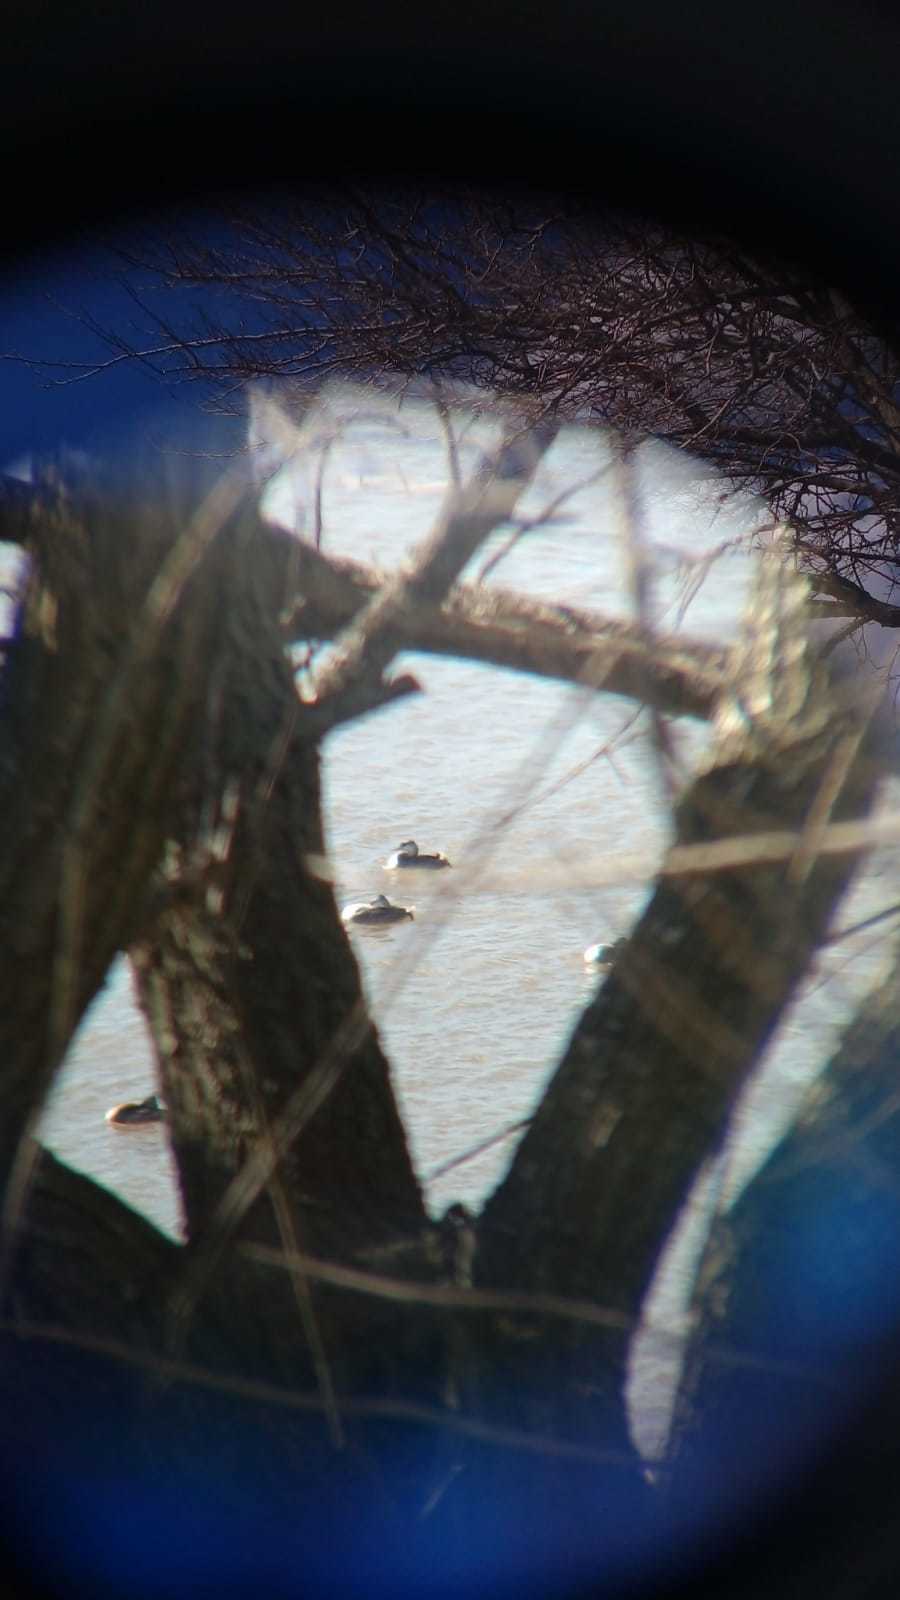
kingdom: Animalia
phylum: Chordata
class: Aves
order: Podicipediformes
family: Podicipedidae
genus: Podiceps
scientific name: Podiceps major
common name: Great grebe
